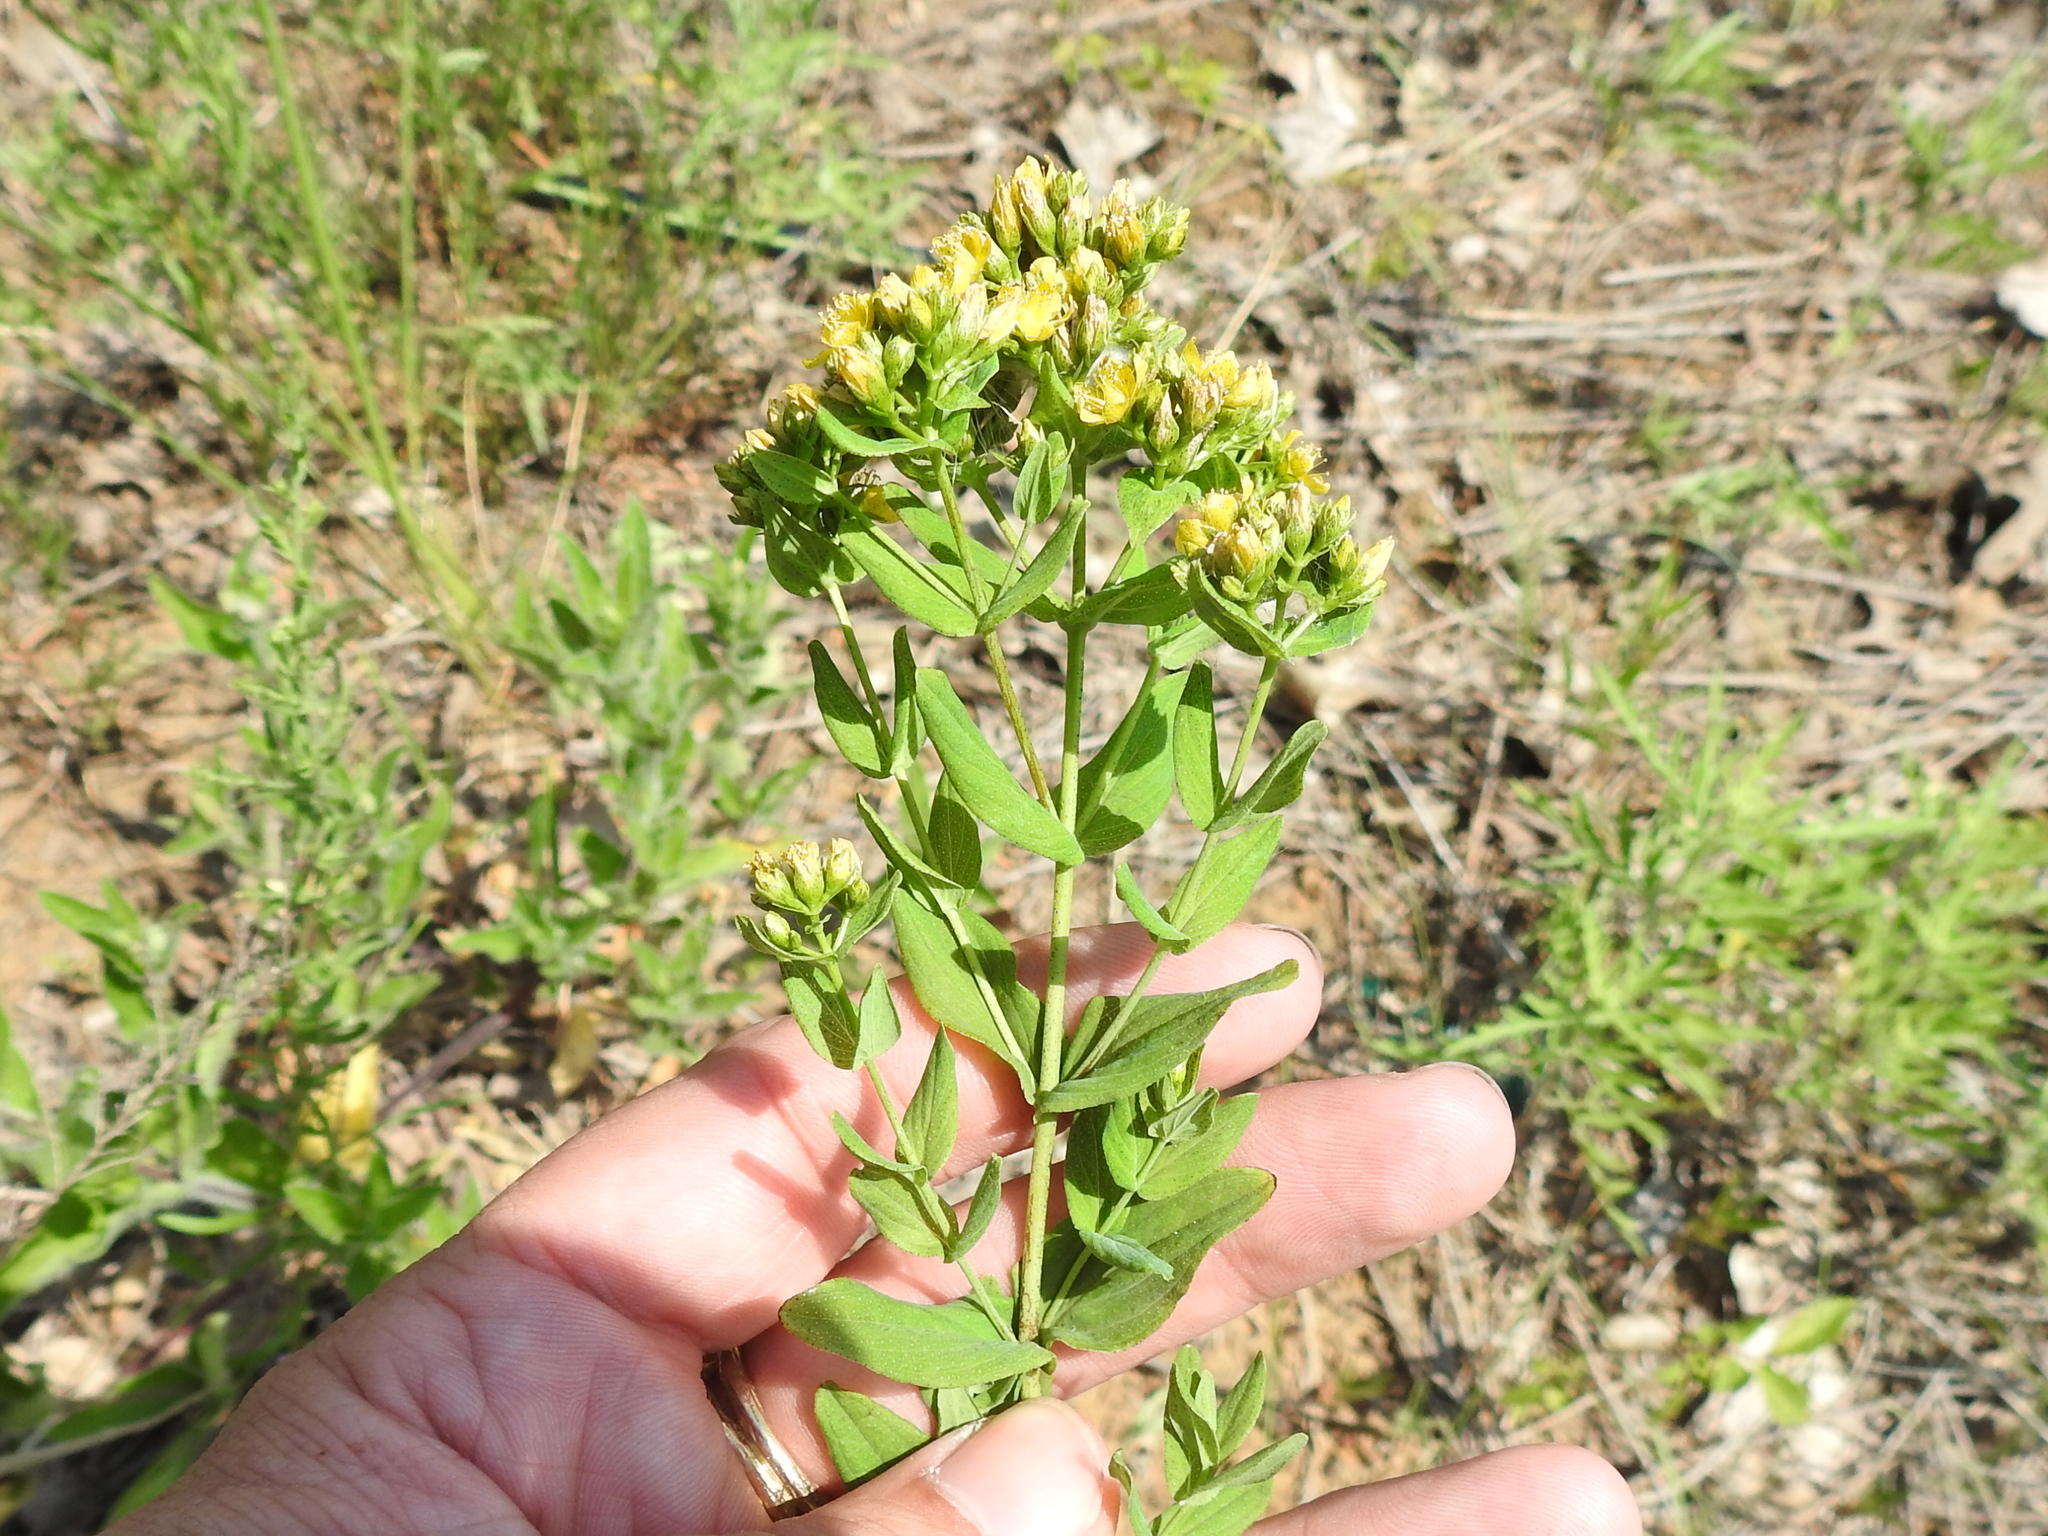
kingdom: Plantae
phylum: Tracheophyta
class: Magnoliopsida
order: Malpighiales
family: Hypericaceae
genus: Hypericum
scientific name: Hypericum punctatum
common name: Spotted st. john's-wort
